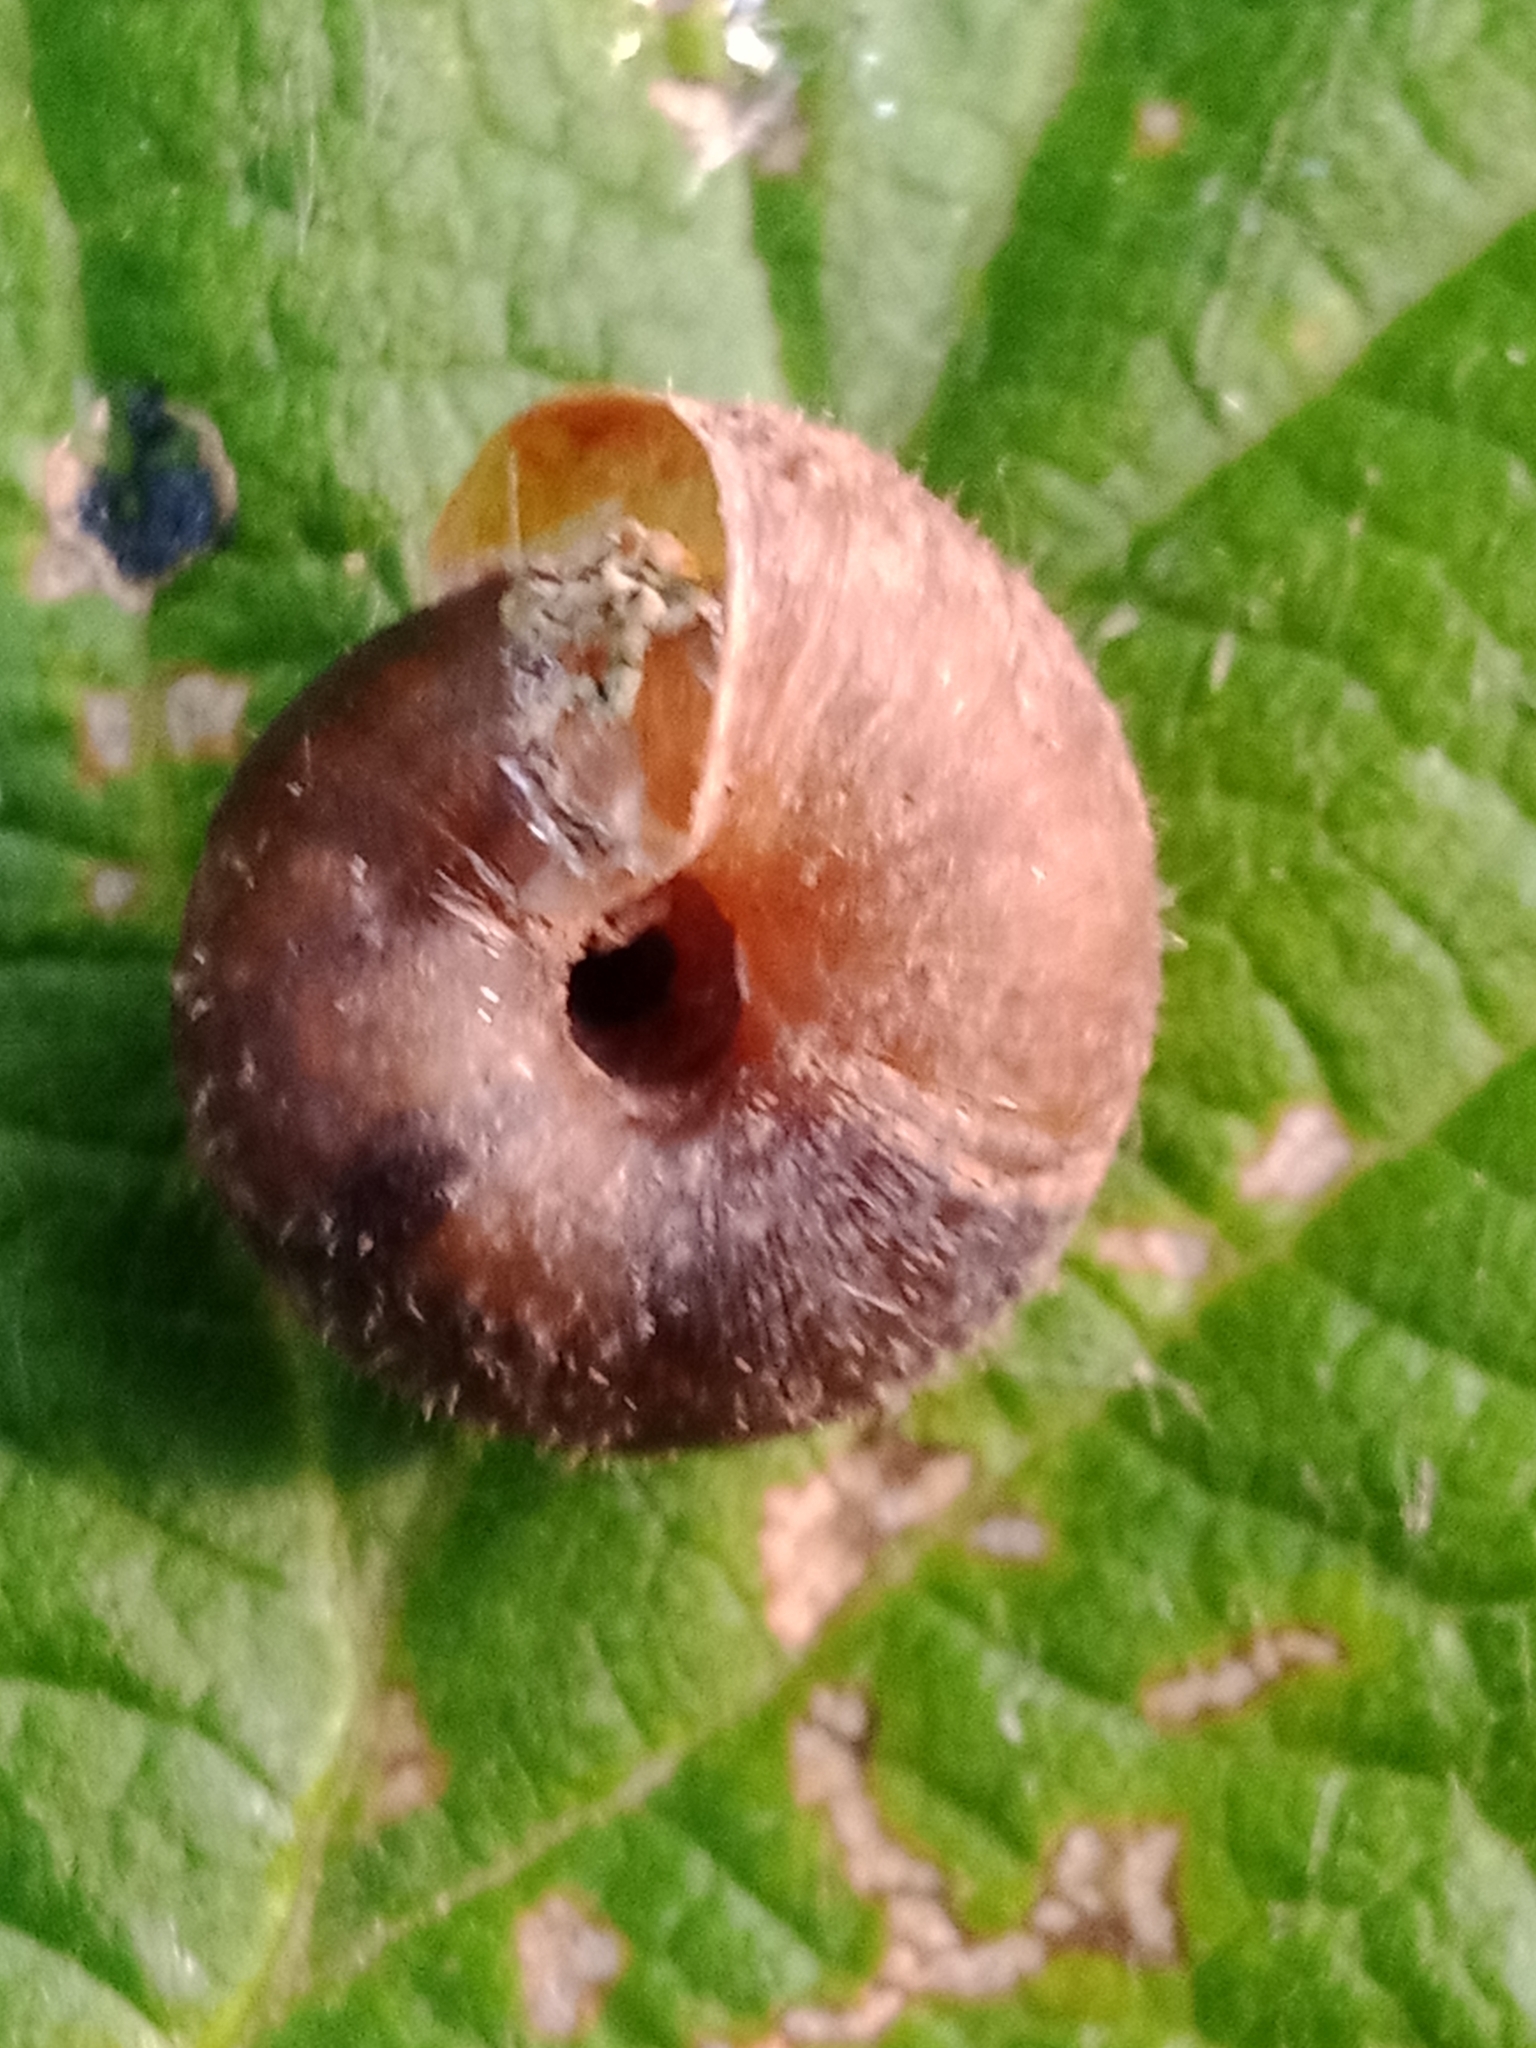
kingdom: Animalia
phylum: Mollusca
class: Gastropoda
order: Stylommatophora
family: Hygromiidae
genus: Trochulus
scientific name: Trochulus hispidus
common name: Hairy snail
